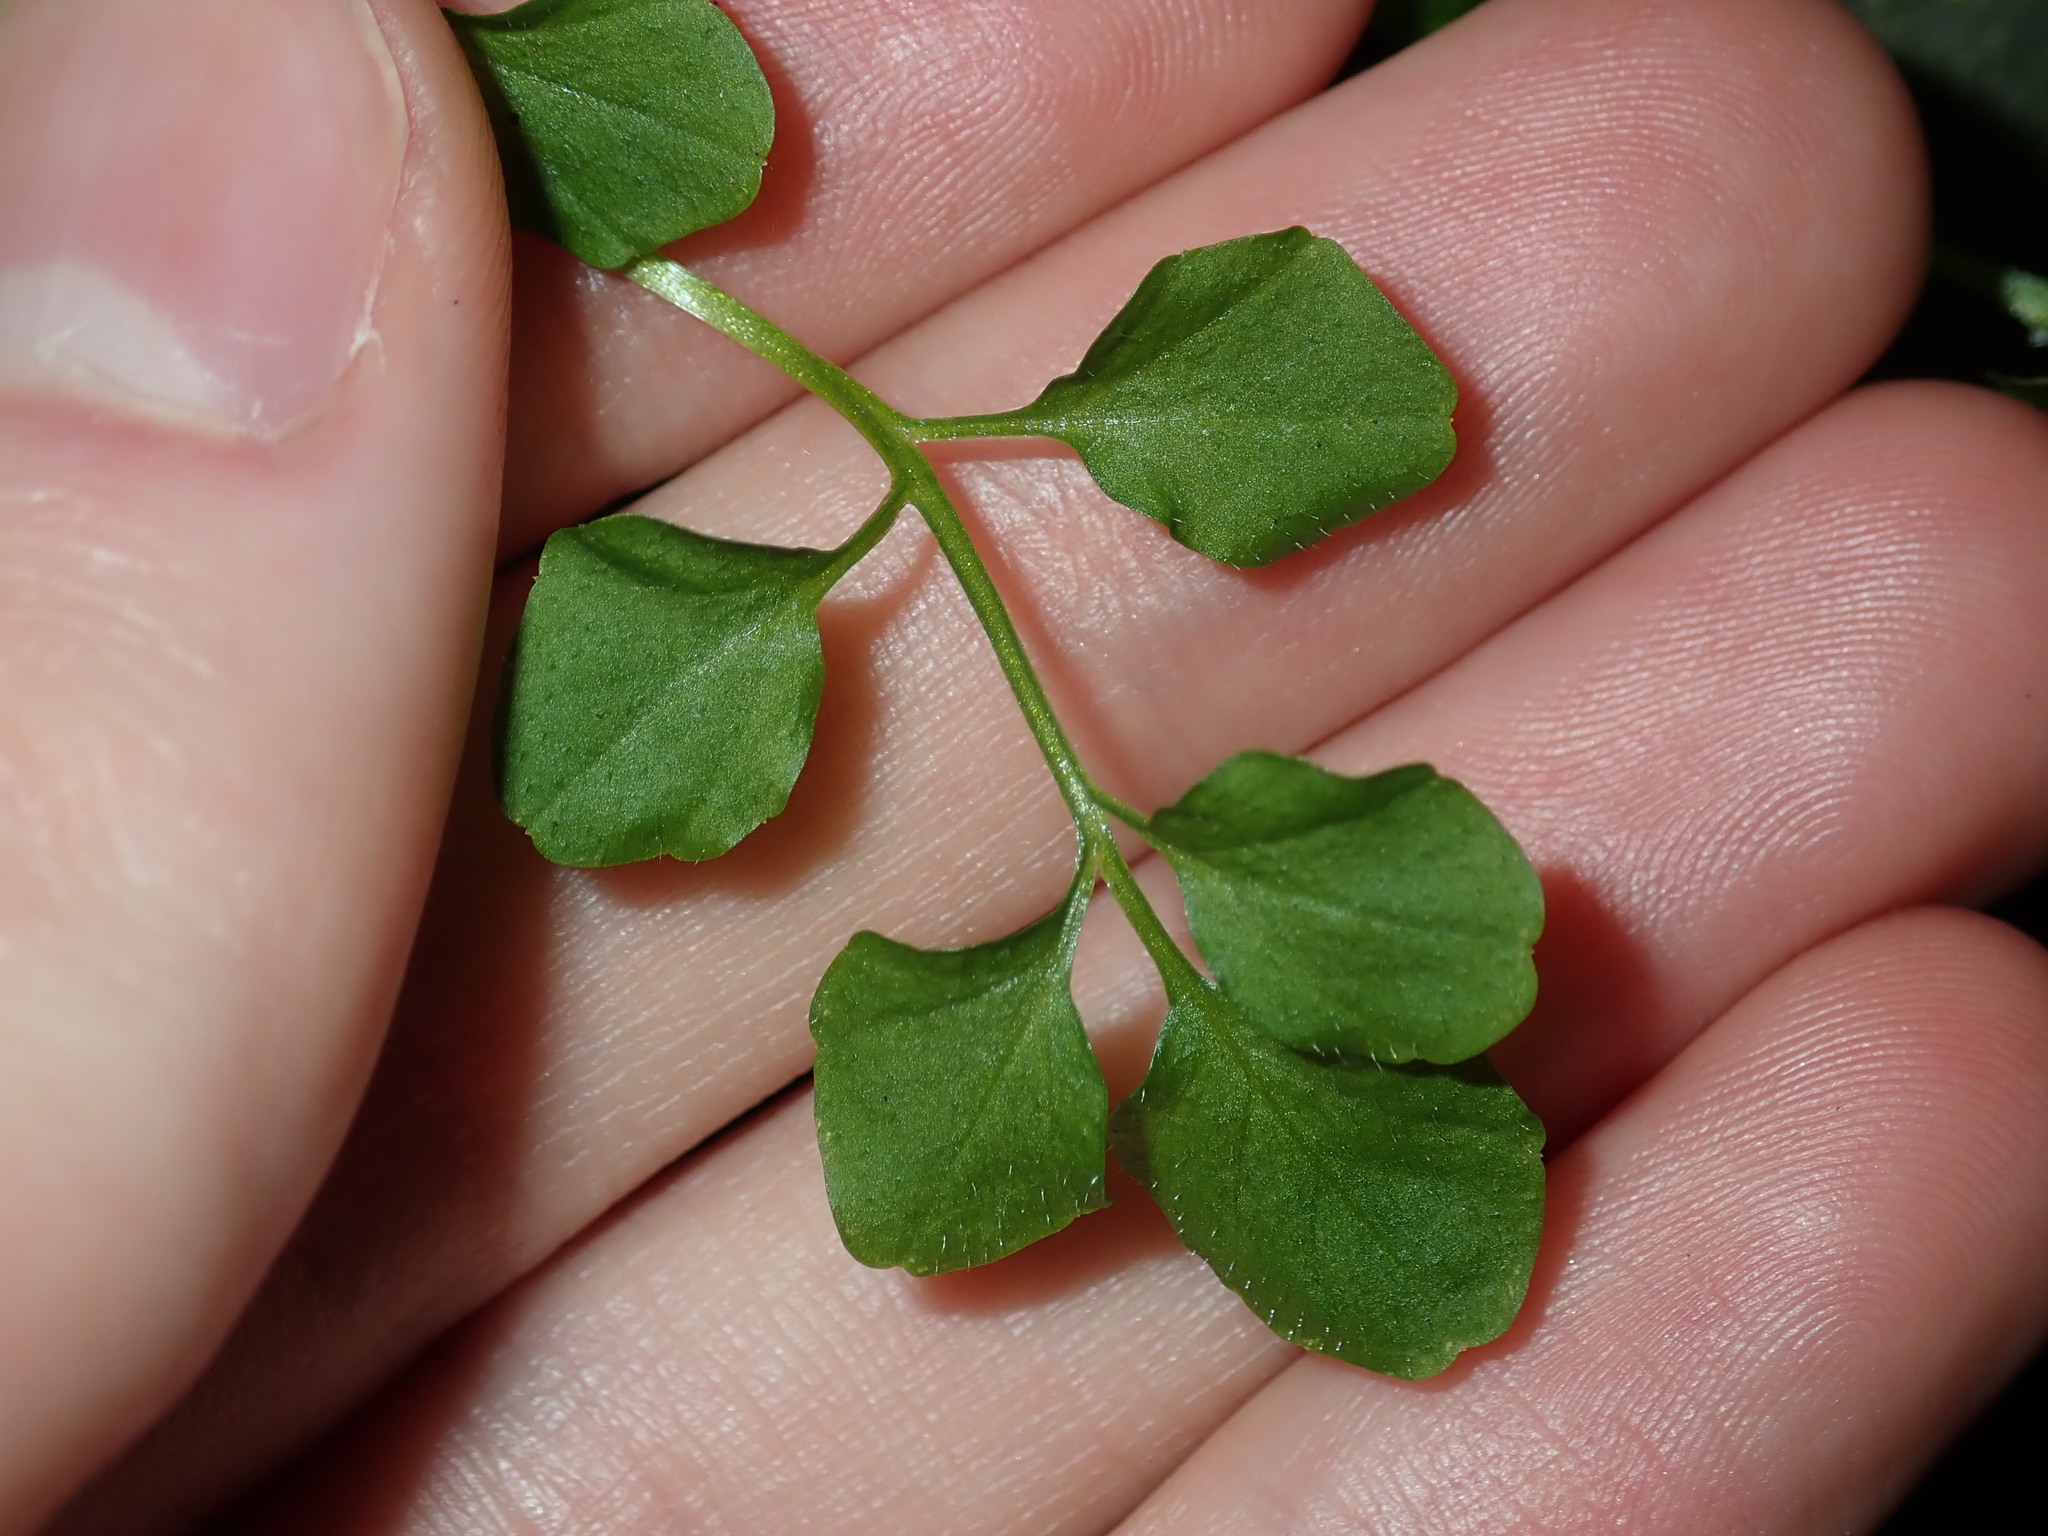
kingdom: Plantae
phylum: Tracheophyta
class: Magnoliopsida
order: Brassicales
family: Brassicaceae
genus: Cardamine
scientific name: Cardamine hirsuta
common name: Hairy bittercress
